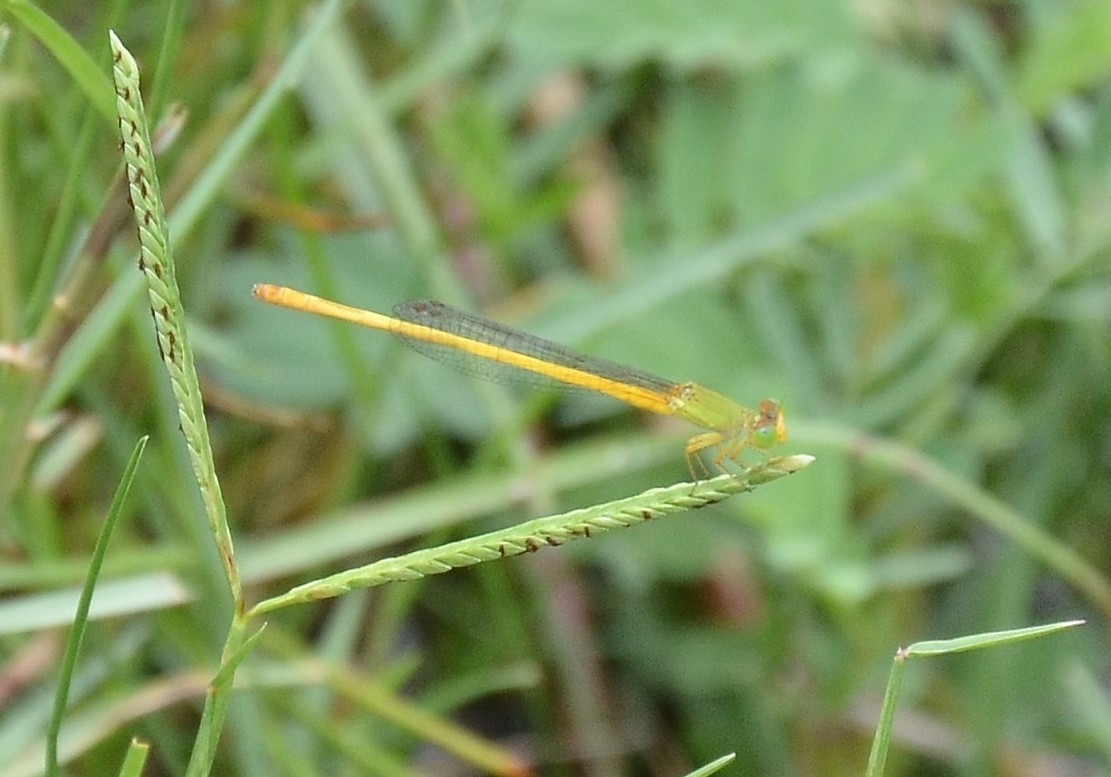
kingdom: Animalia
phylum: Arthropoda
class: Insecta
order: Odonata
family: Coenagrionidae
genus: Ceriagrion
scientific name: Ceriagrion coromandelianum
